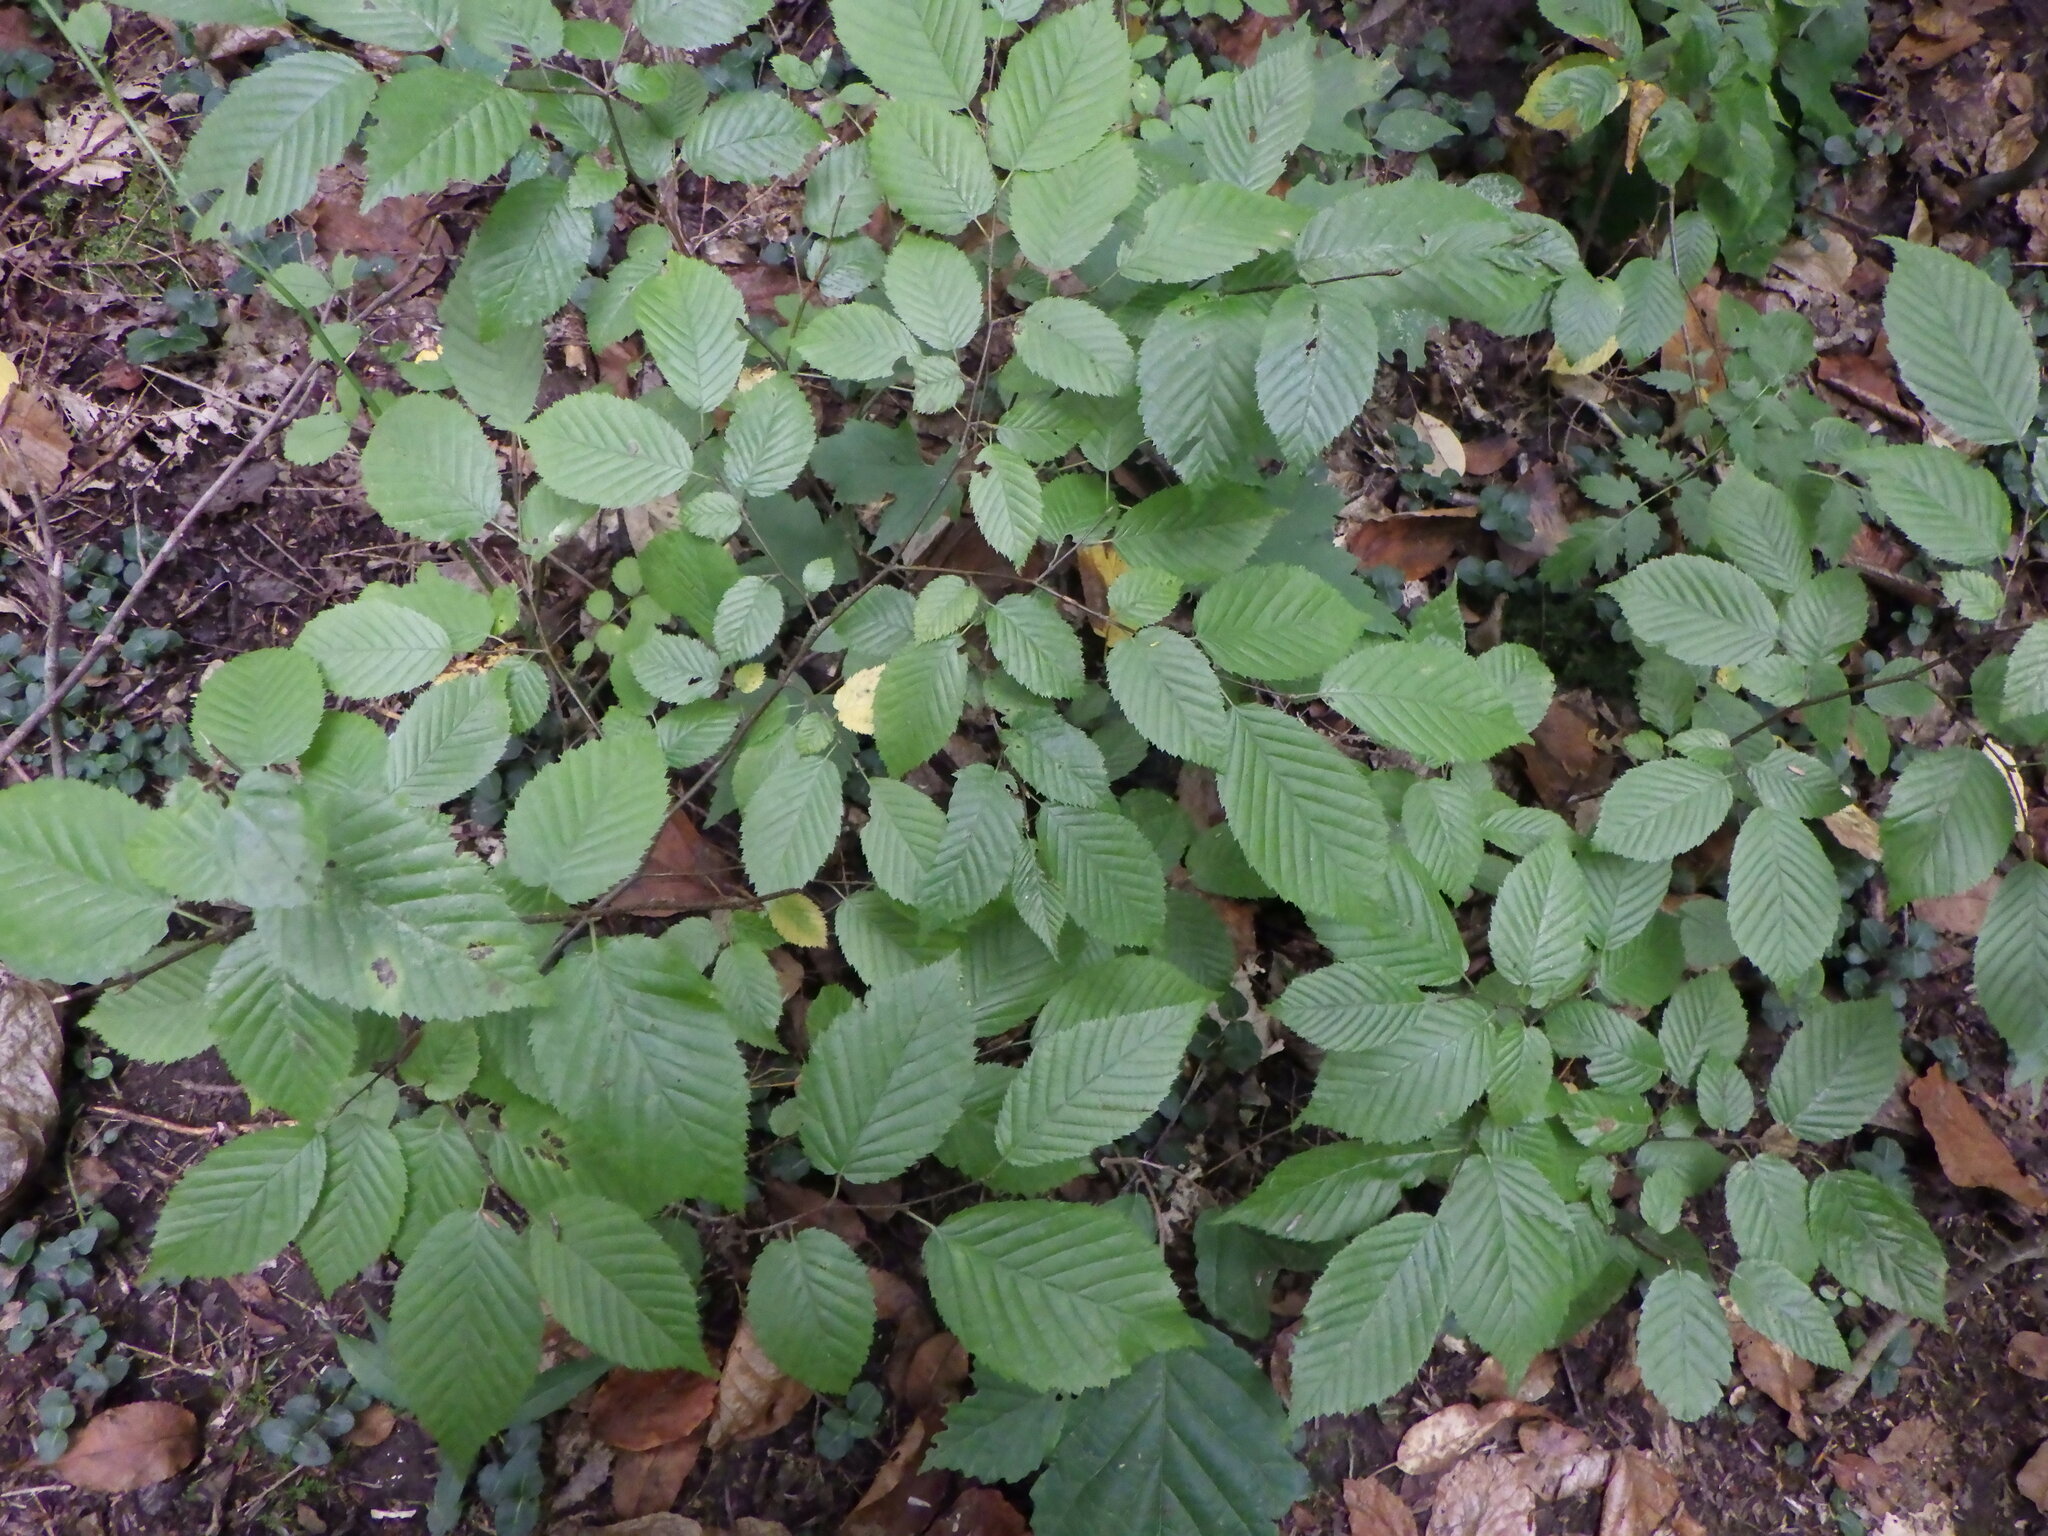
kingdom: Plantae
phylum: Tracheophyta
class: Magnoliopsida
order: Fagales
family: Fagaceae
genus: Fagus
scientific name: Fagus grandifolia
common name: American beech
